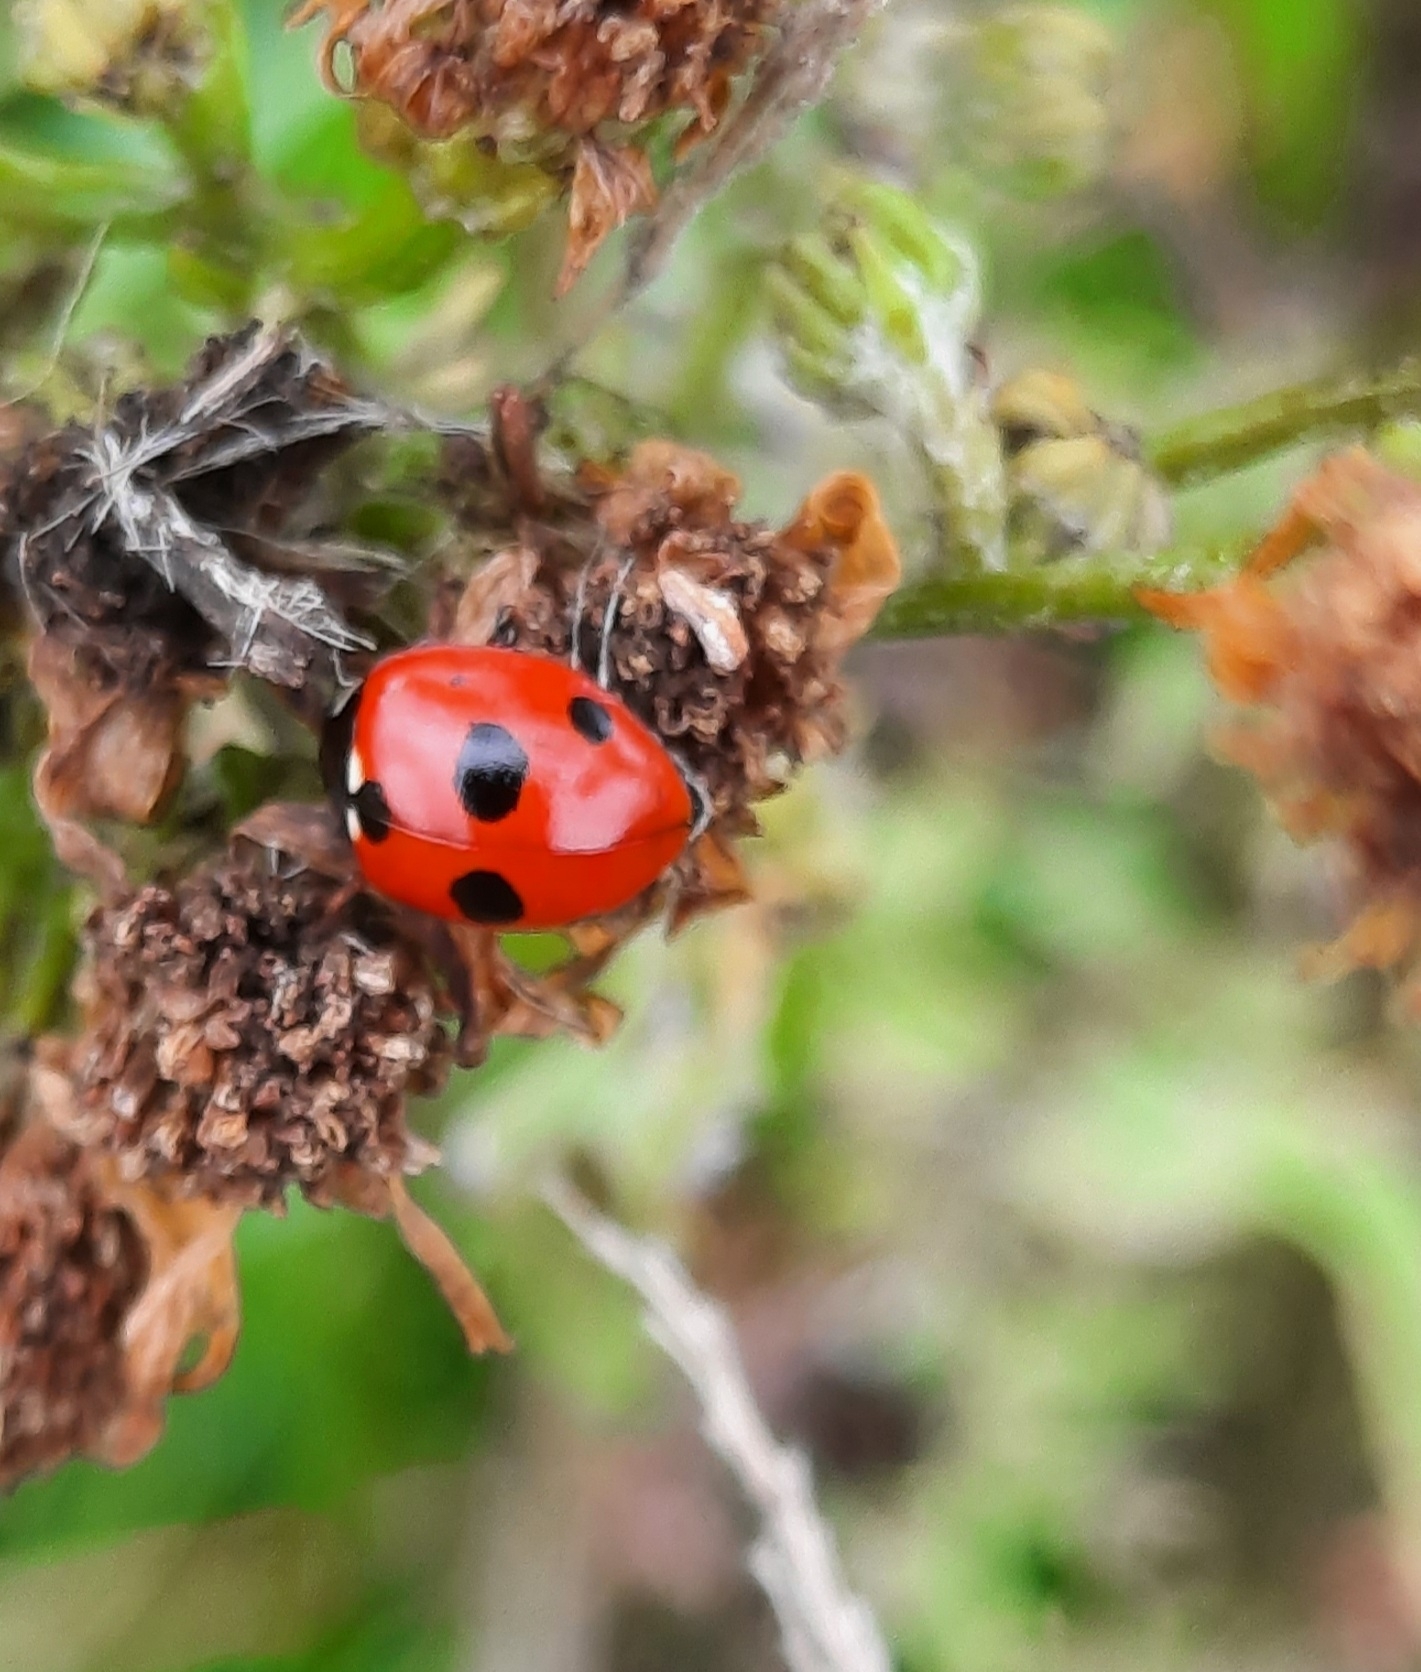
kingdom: Animalia
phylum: Arthropoda
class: Insecta
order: Coleoptera
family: Coccinellidae
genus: Coccinella
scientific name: Coccinella quinquepunctata
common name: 5-spot ladybird
